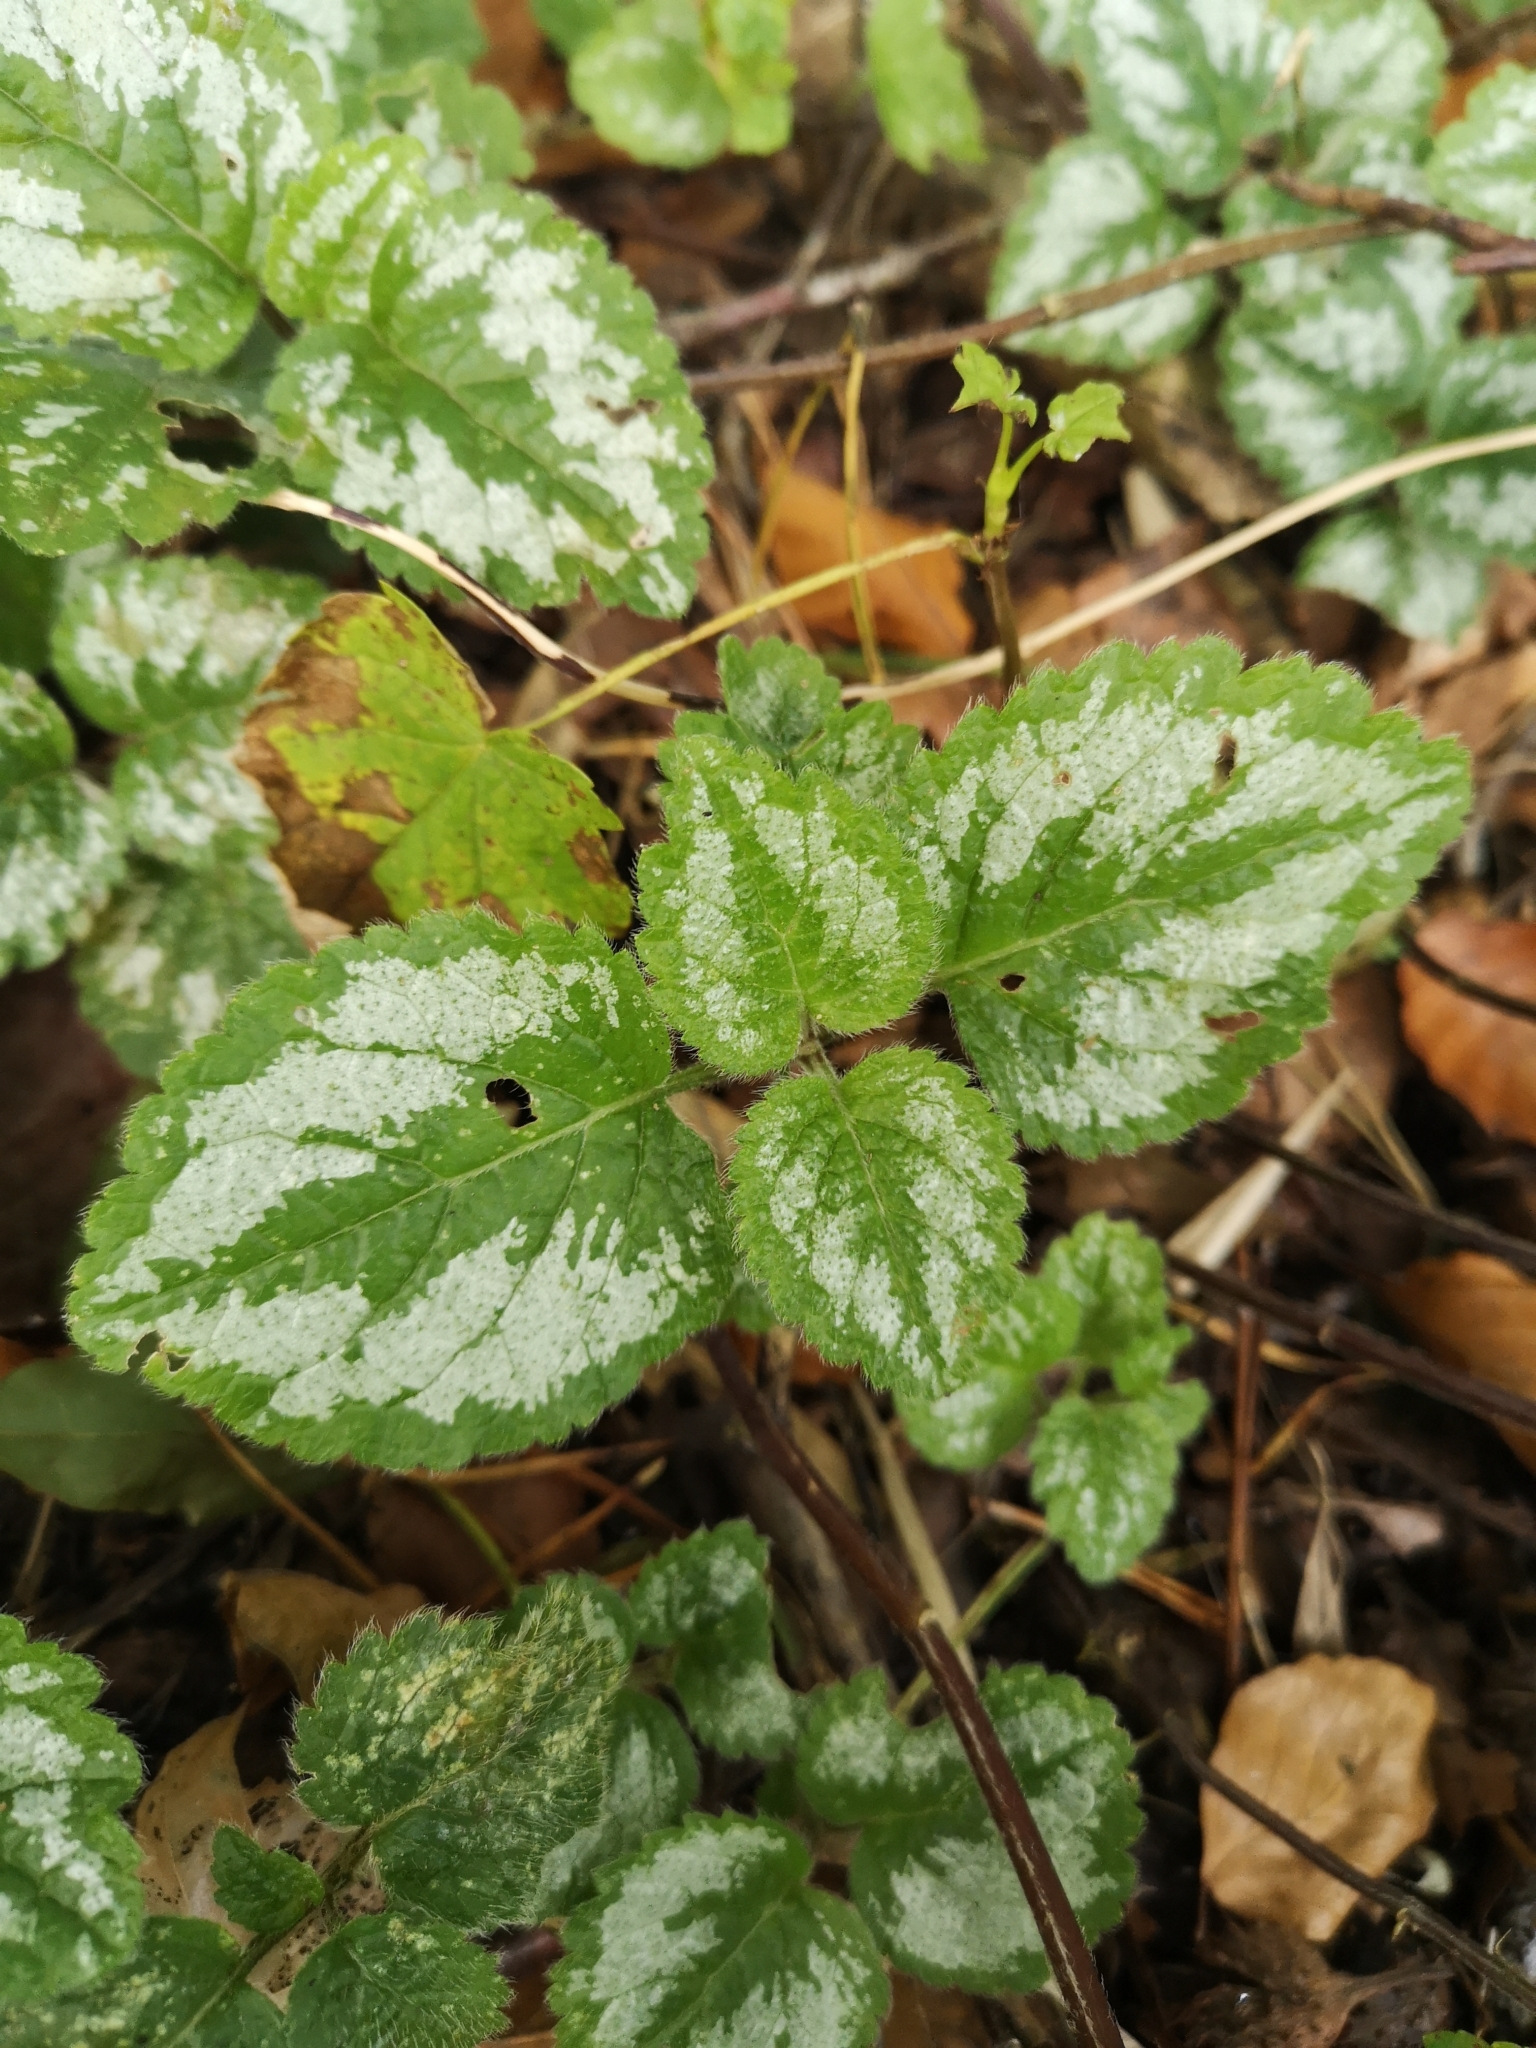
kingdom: Plantae
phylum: Tracheophyta
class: Magnoliopsida
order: Lamiales
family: Lamiaceae
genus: Lamium
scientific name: Lamium galeobdolon
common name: Yellow archangel
